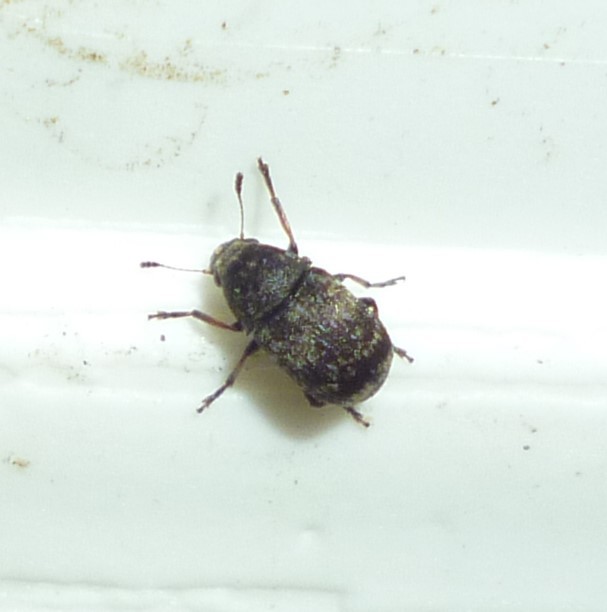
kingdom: Animalia
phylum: Arthropoda
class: Insecta
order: Coleoptera
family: Anthribidae
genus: Eusphyrus
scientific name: Eusphyrus walshii
